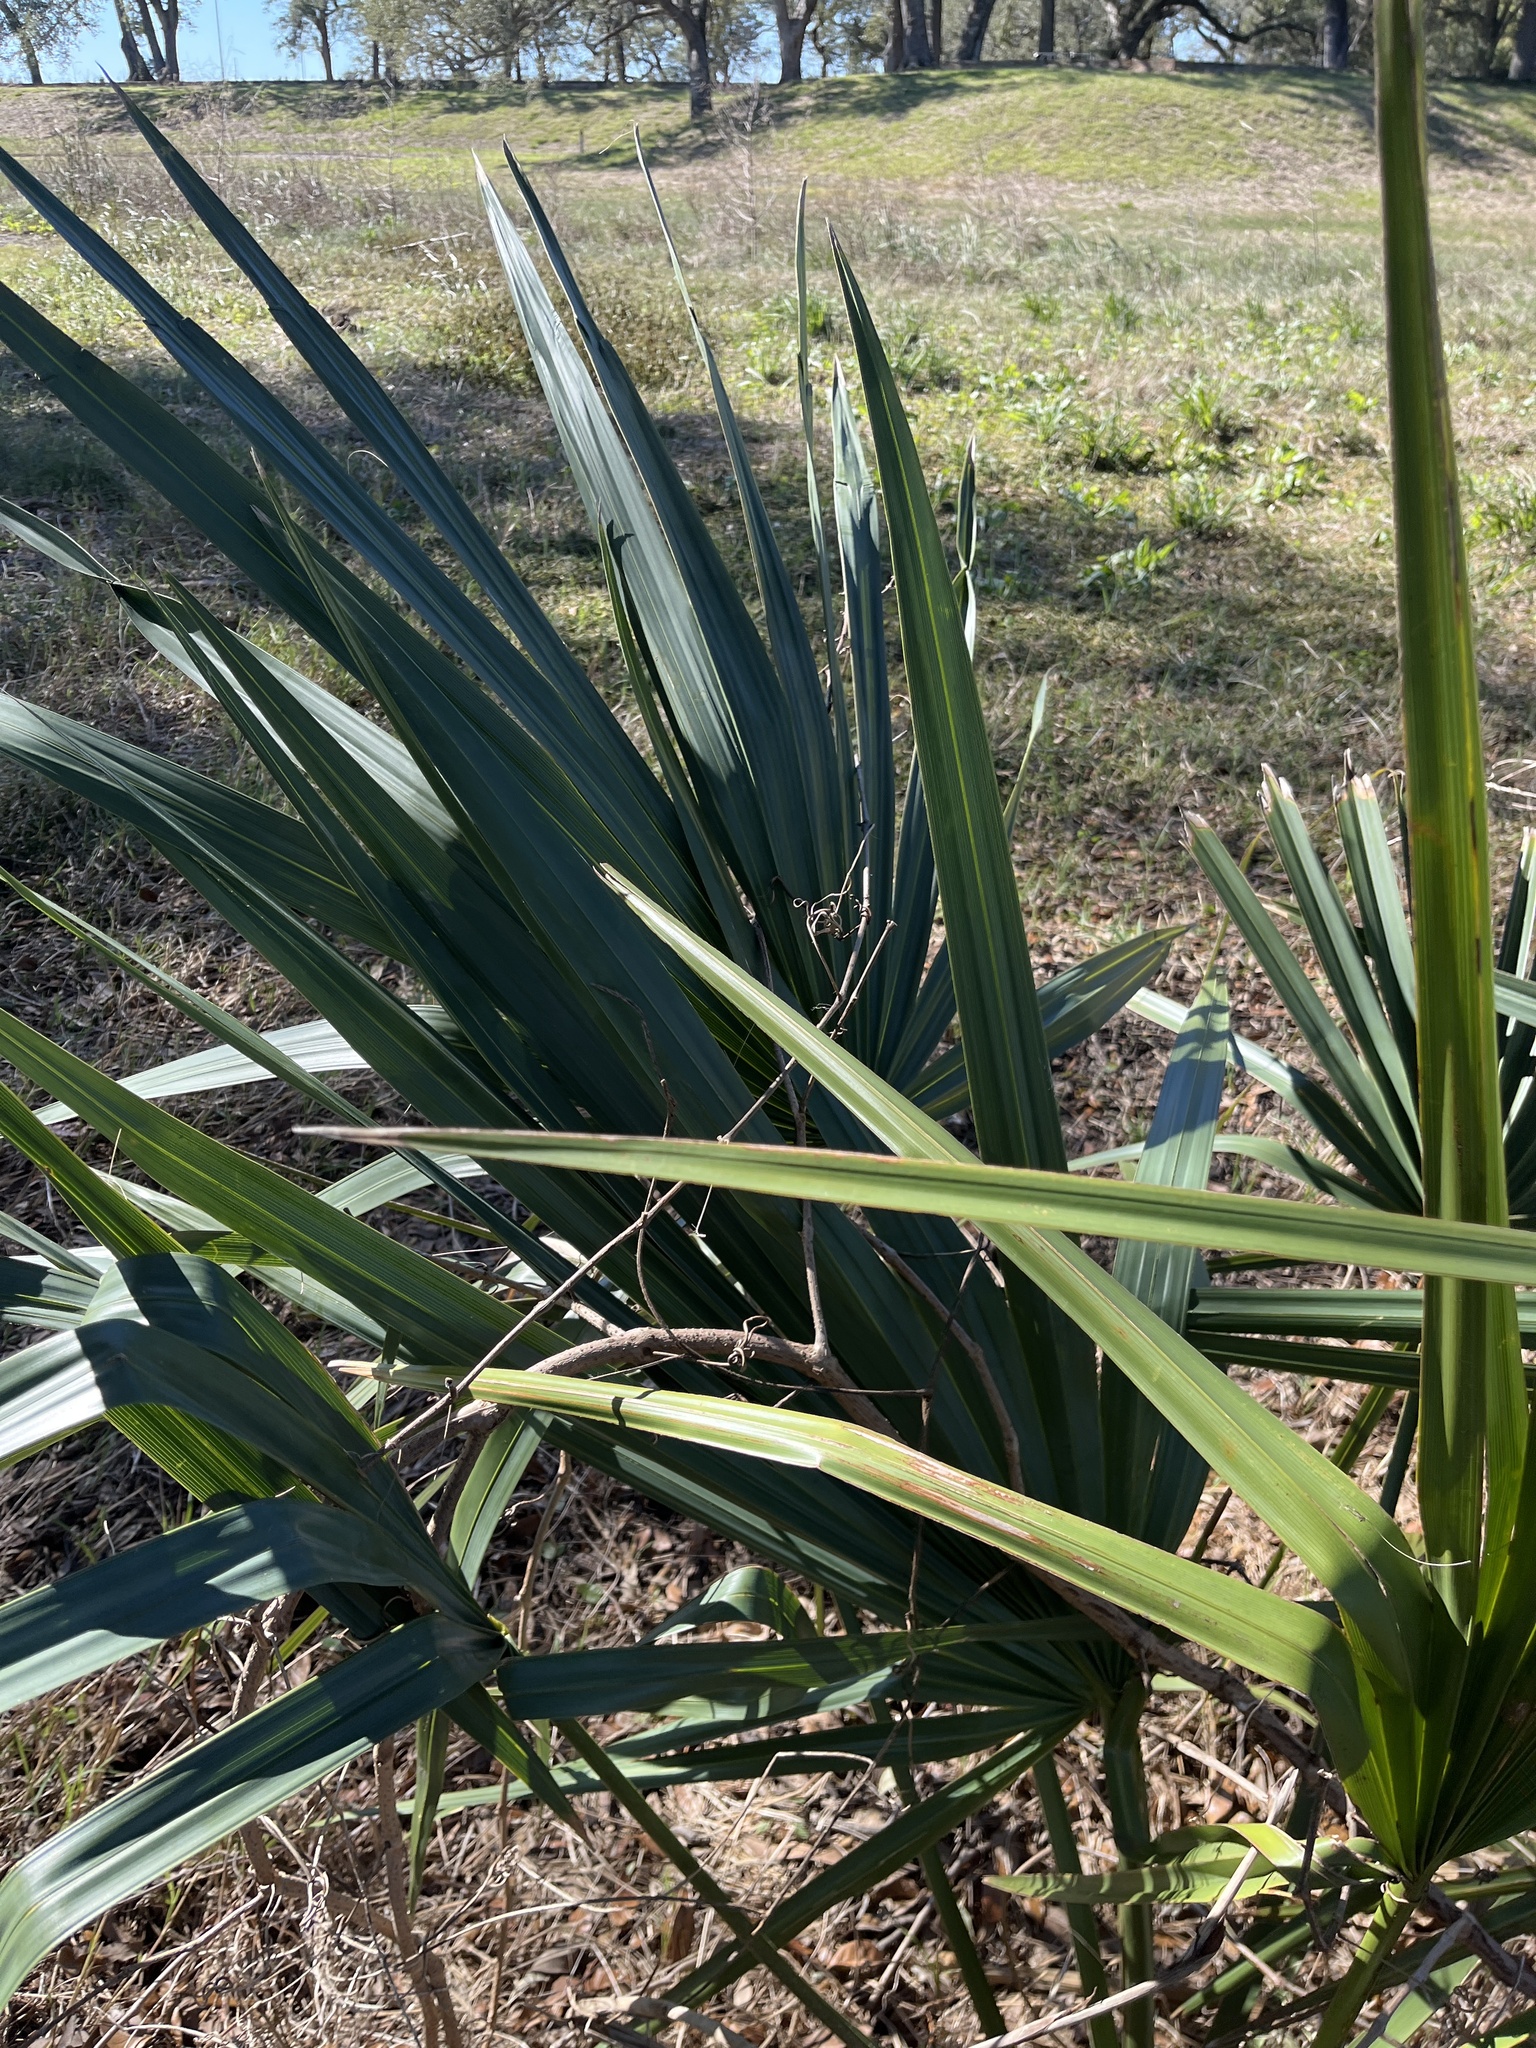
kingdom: Plantae
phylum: Tracheophyta
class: Liliopsida
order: Arecales
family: Arecaceae
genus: Sabal
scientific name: Sabal minor
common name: Dwarf palmetto
